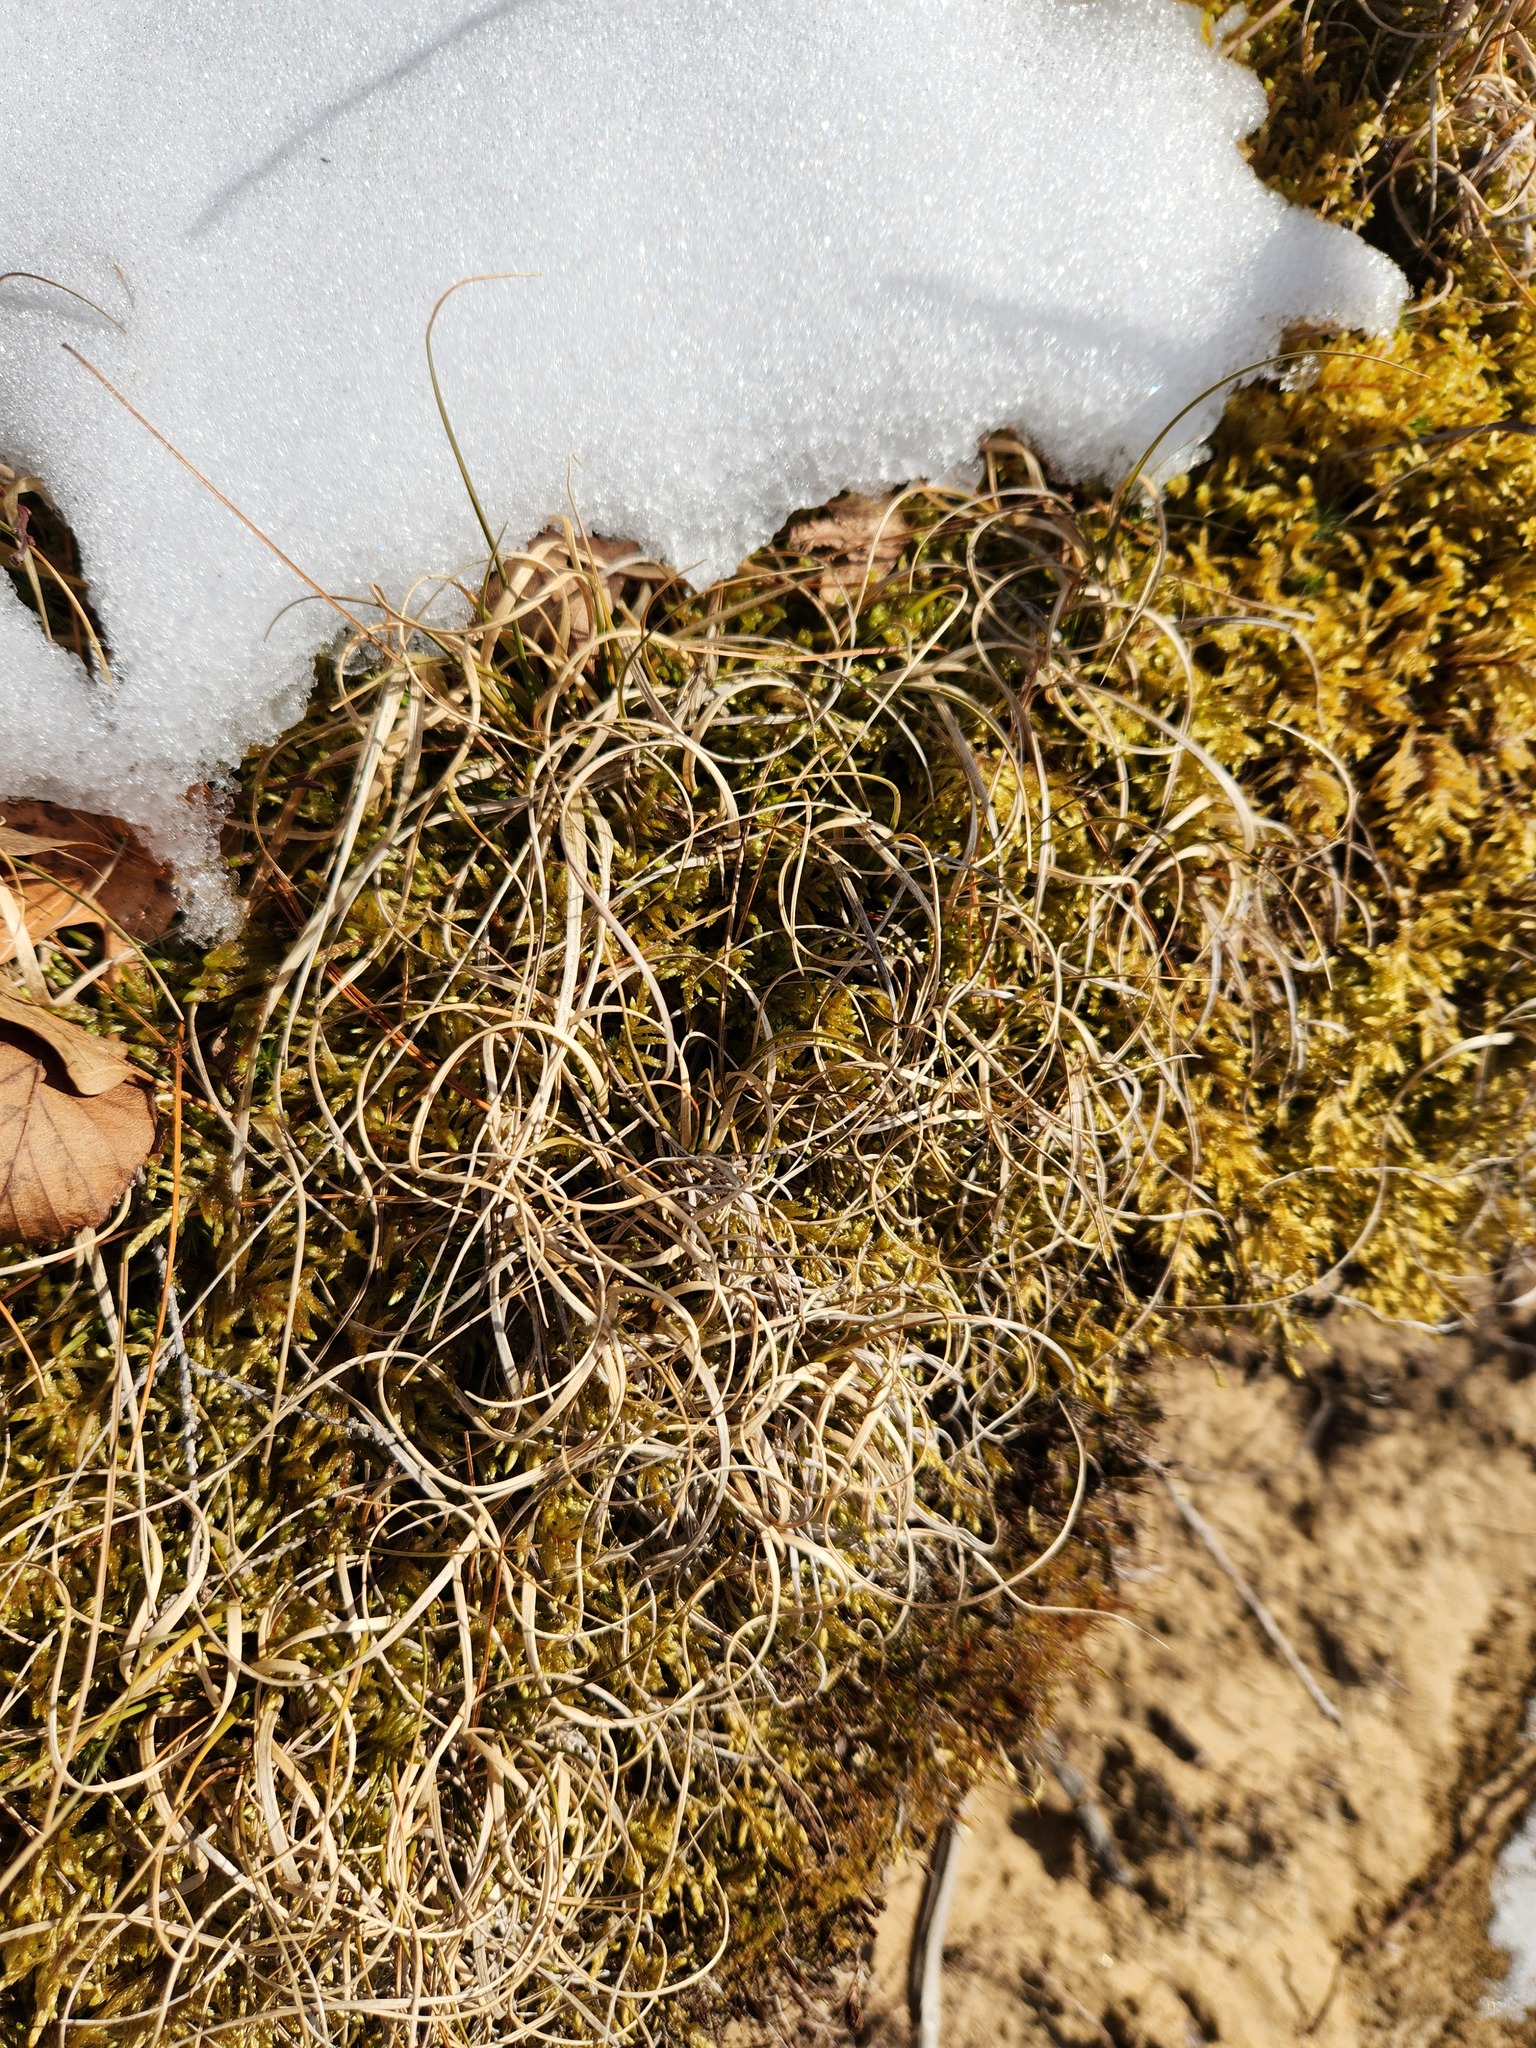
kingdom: Plantae
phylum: Tracheophyta
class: Liliopsida
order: Poales
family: Poaceae
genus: Danthonia
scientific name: Danthonia spicata
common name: Common wild oatgrass
